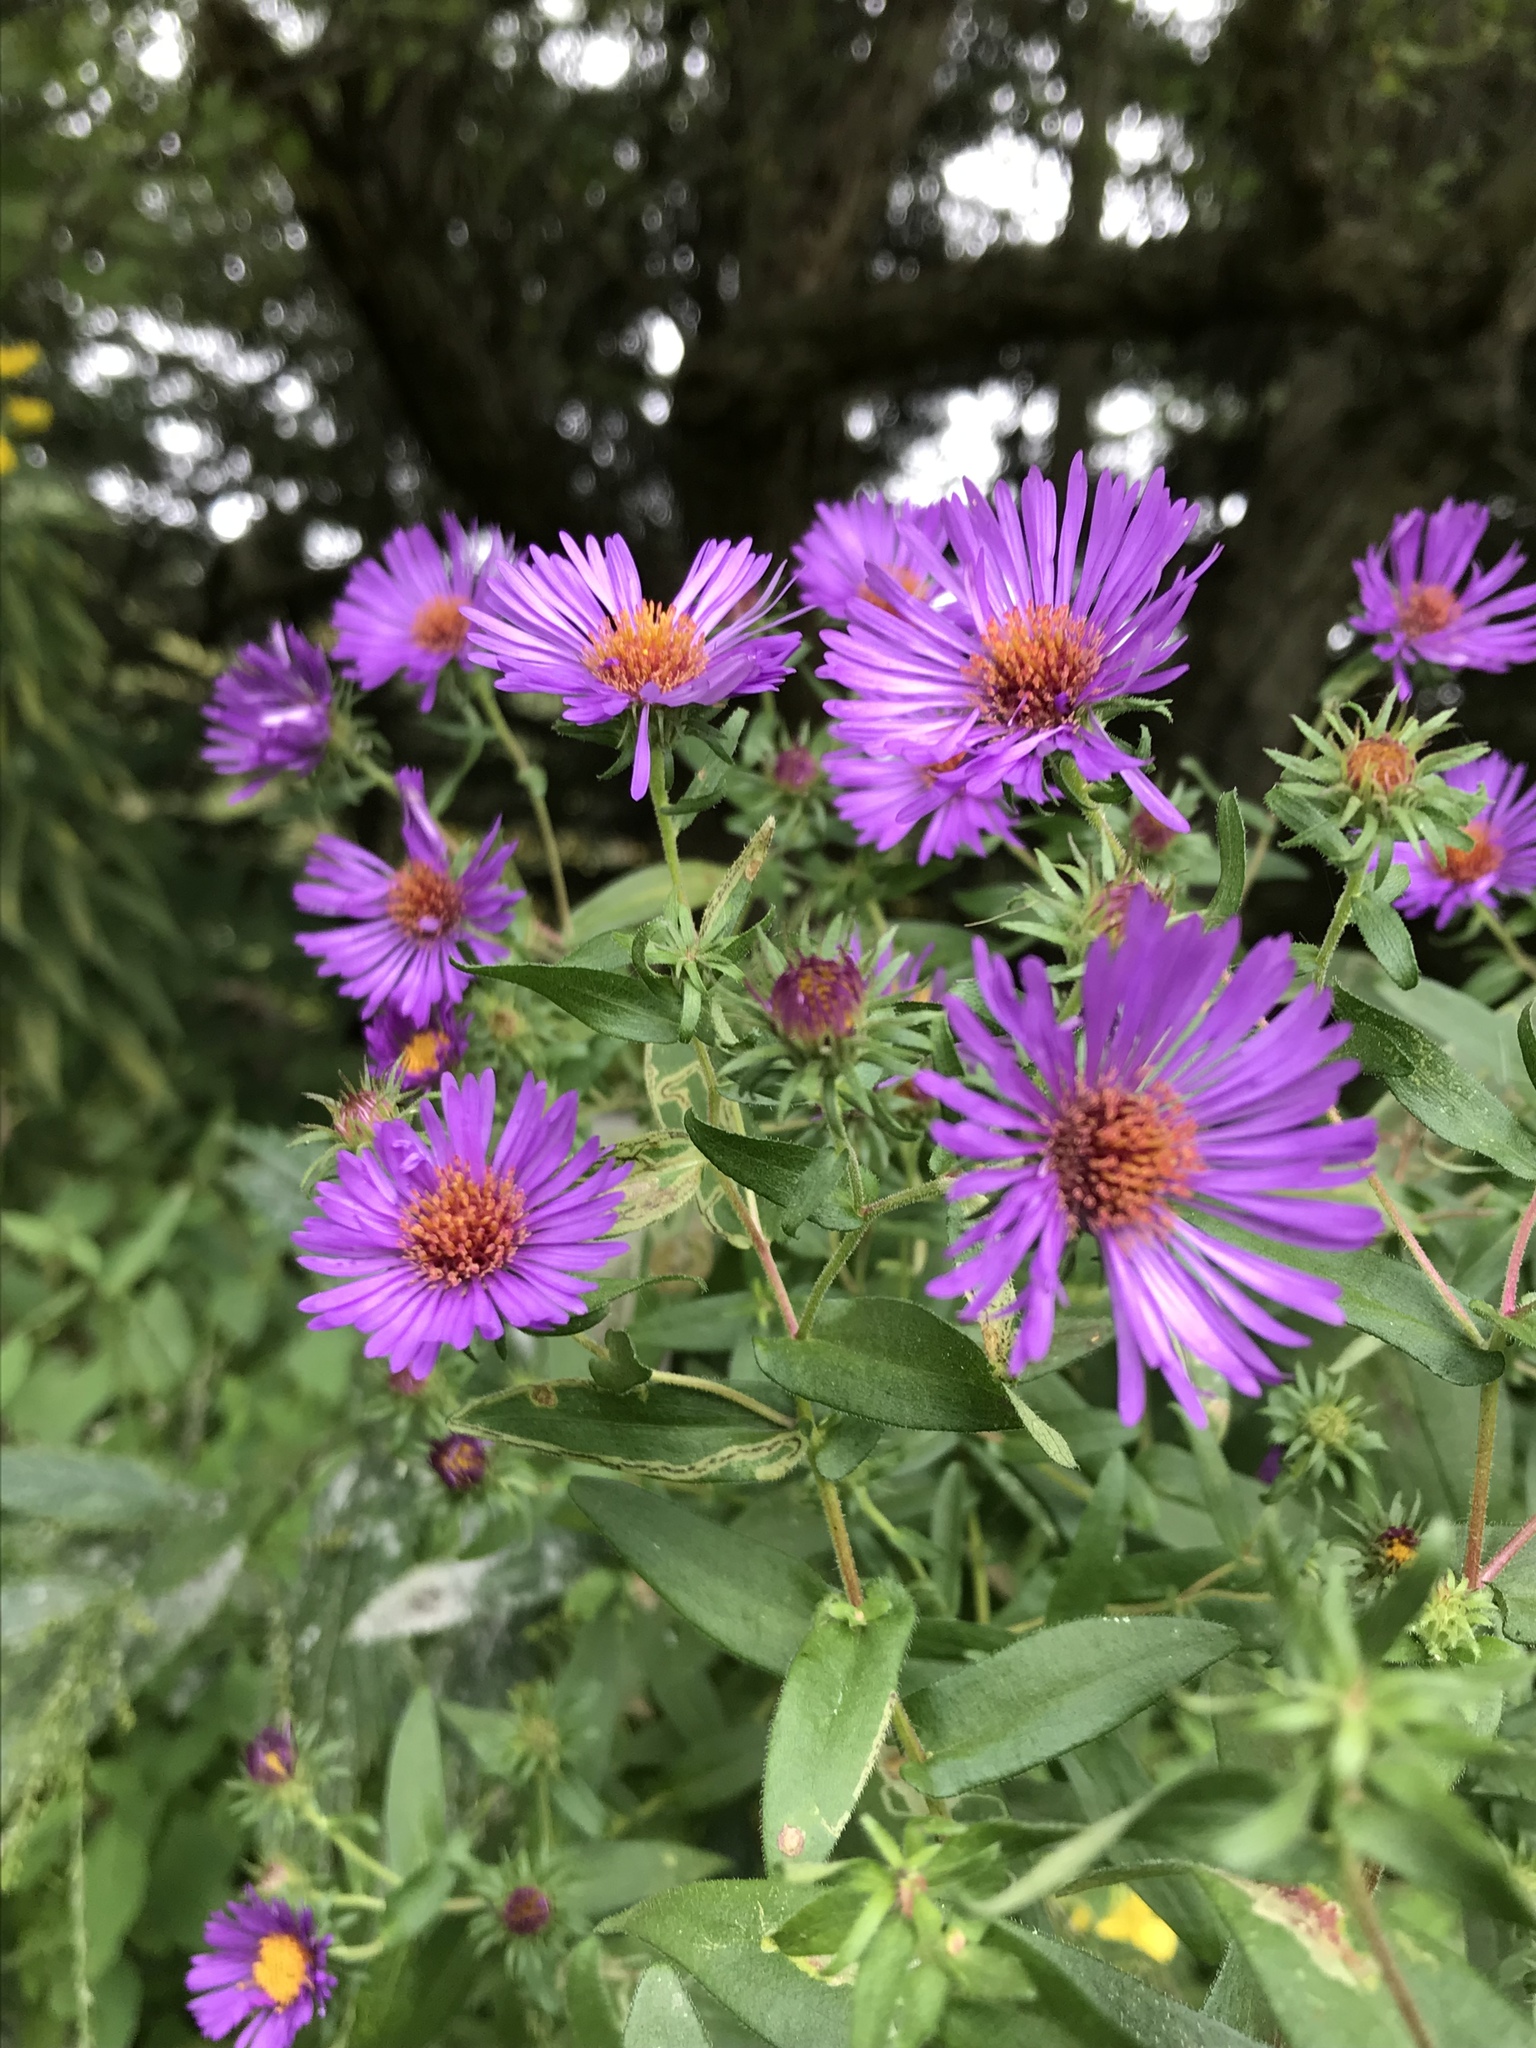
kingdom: Plantae
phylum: Tracheophyta
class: Magnoliopsida
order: Asterales
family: Asteraceae
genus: Symphyotrichum
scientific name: Symphyotrichum novae-angliae
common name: Michaelmas daisy
